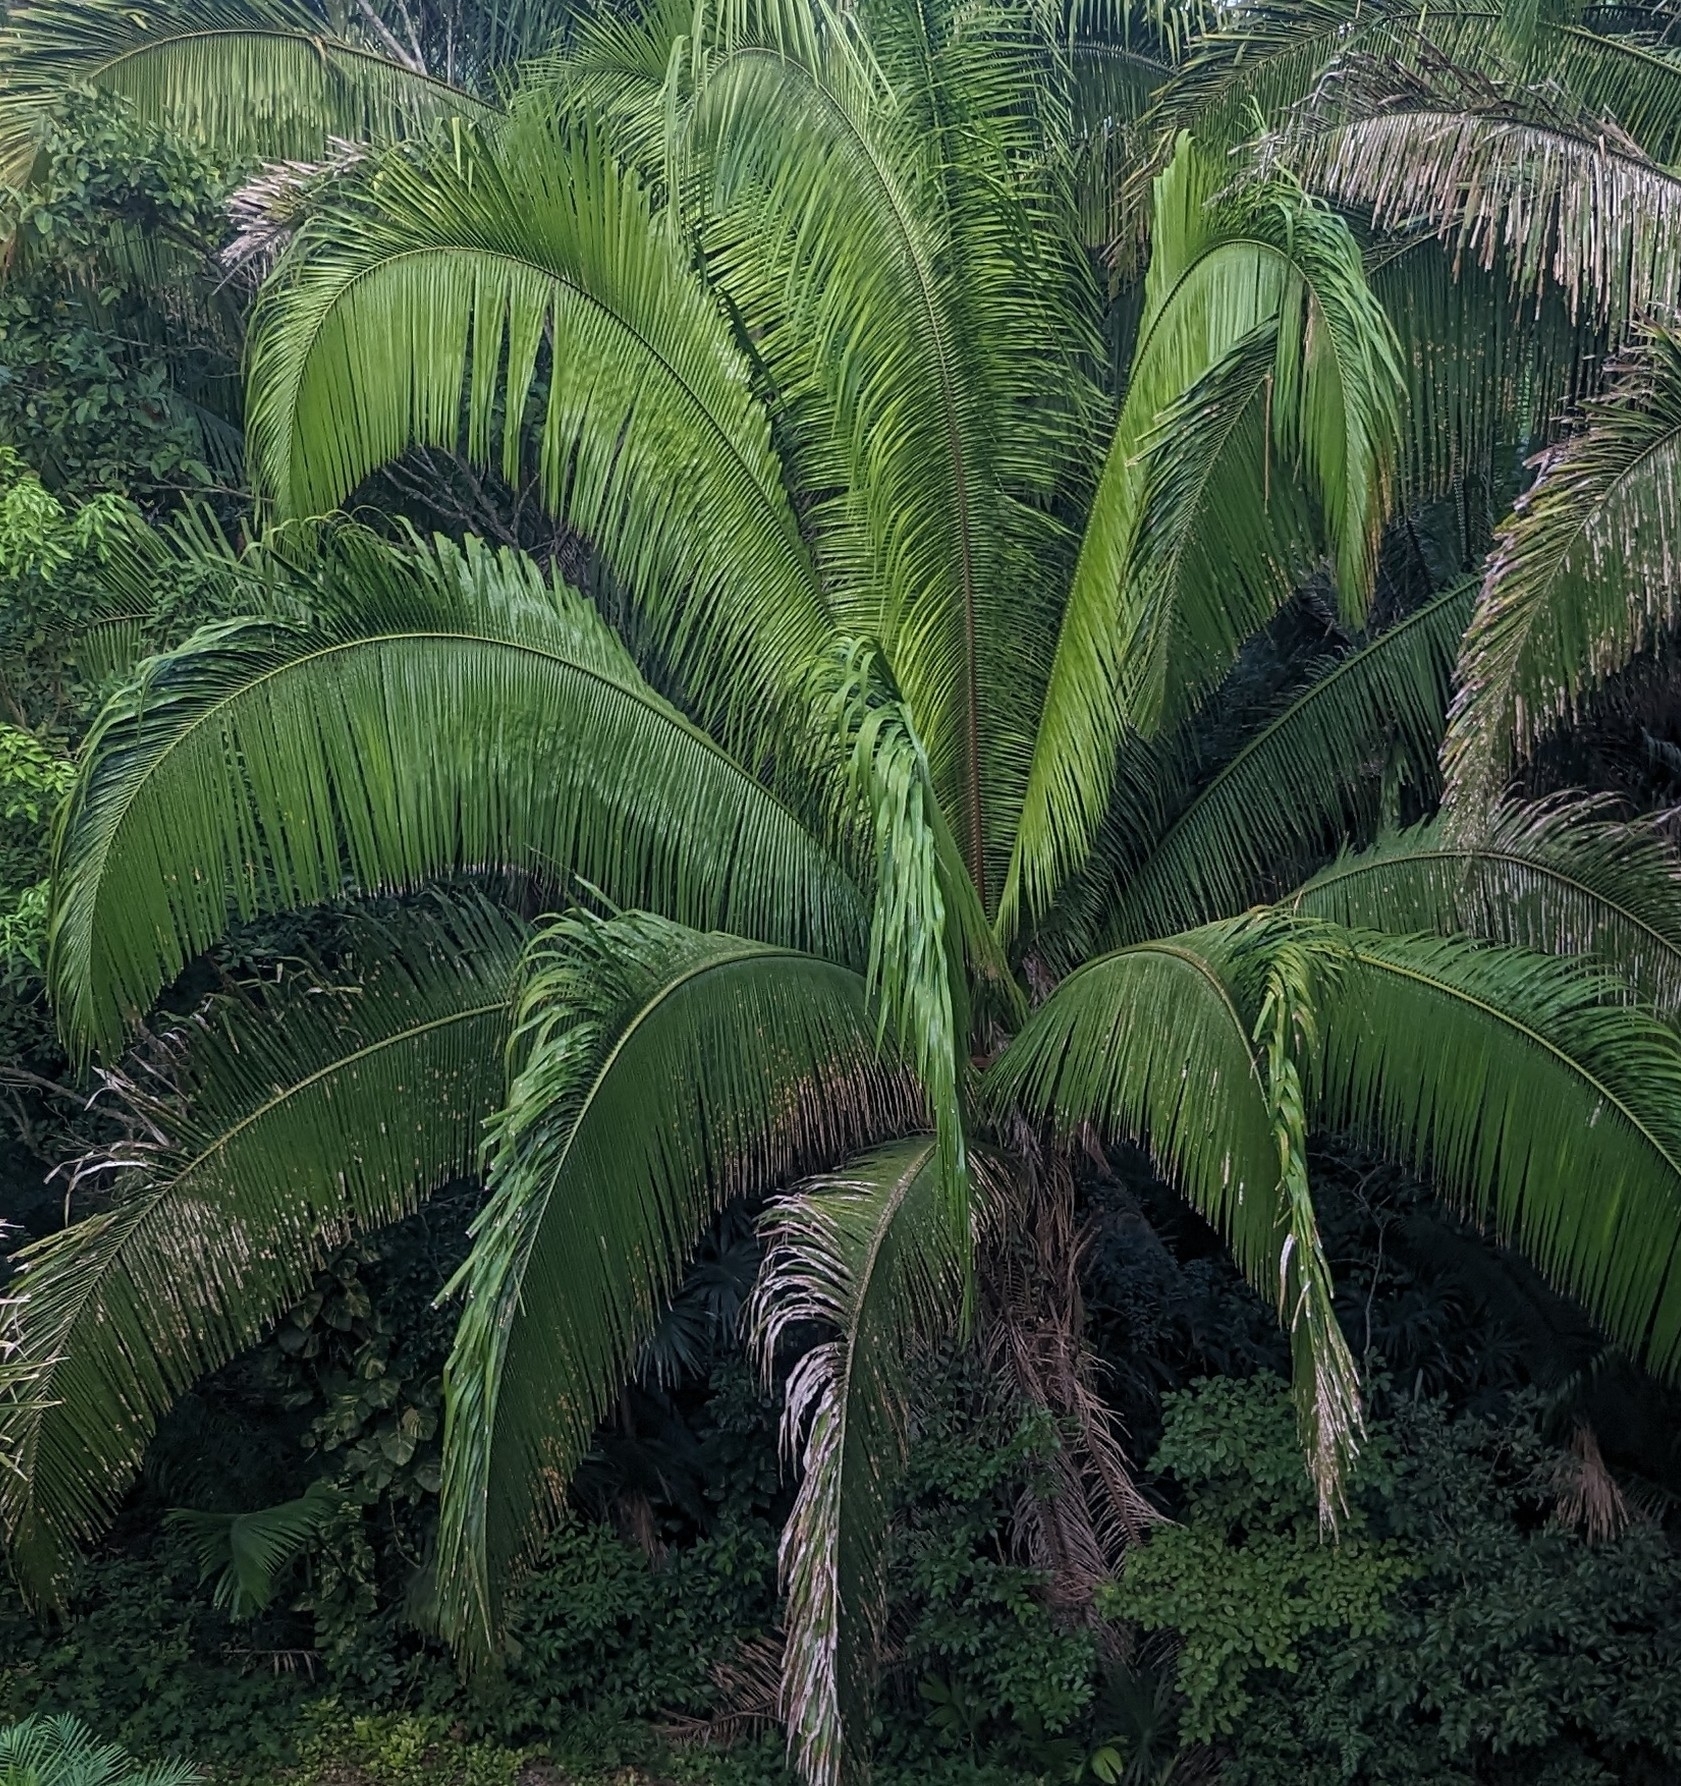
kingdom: Plantae
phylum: Tracheophyta
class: Liliopsida
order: Arecales
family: Arecaceae
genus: Attalea
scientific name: Attalea cohune
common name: Cohune palm
